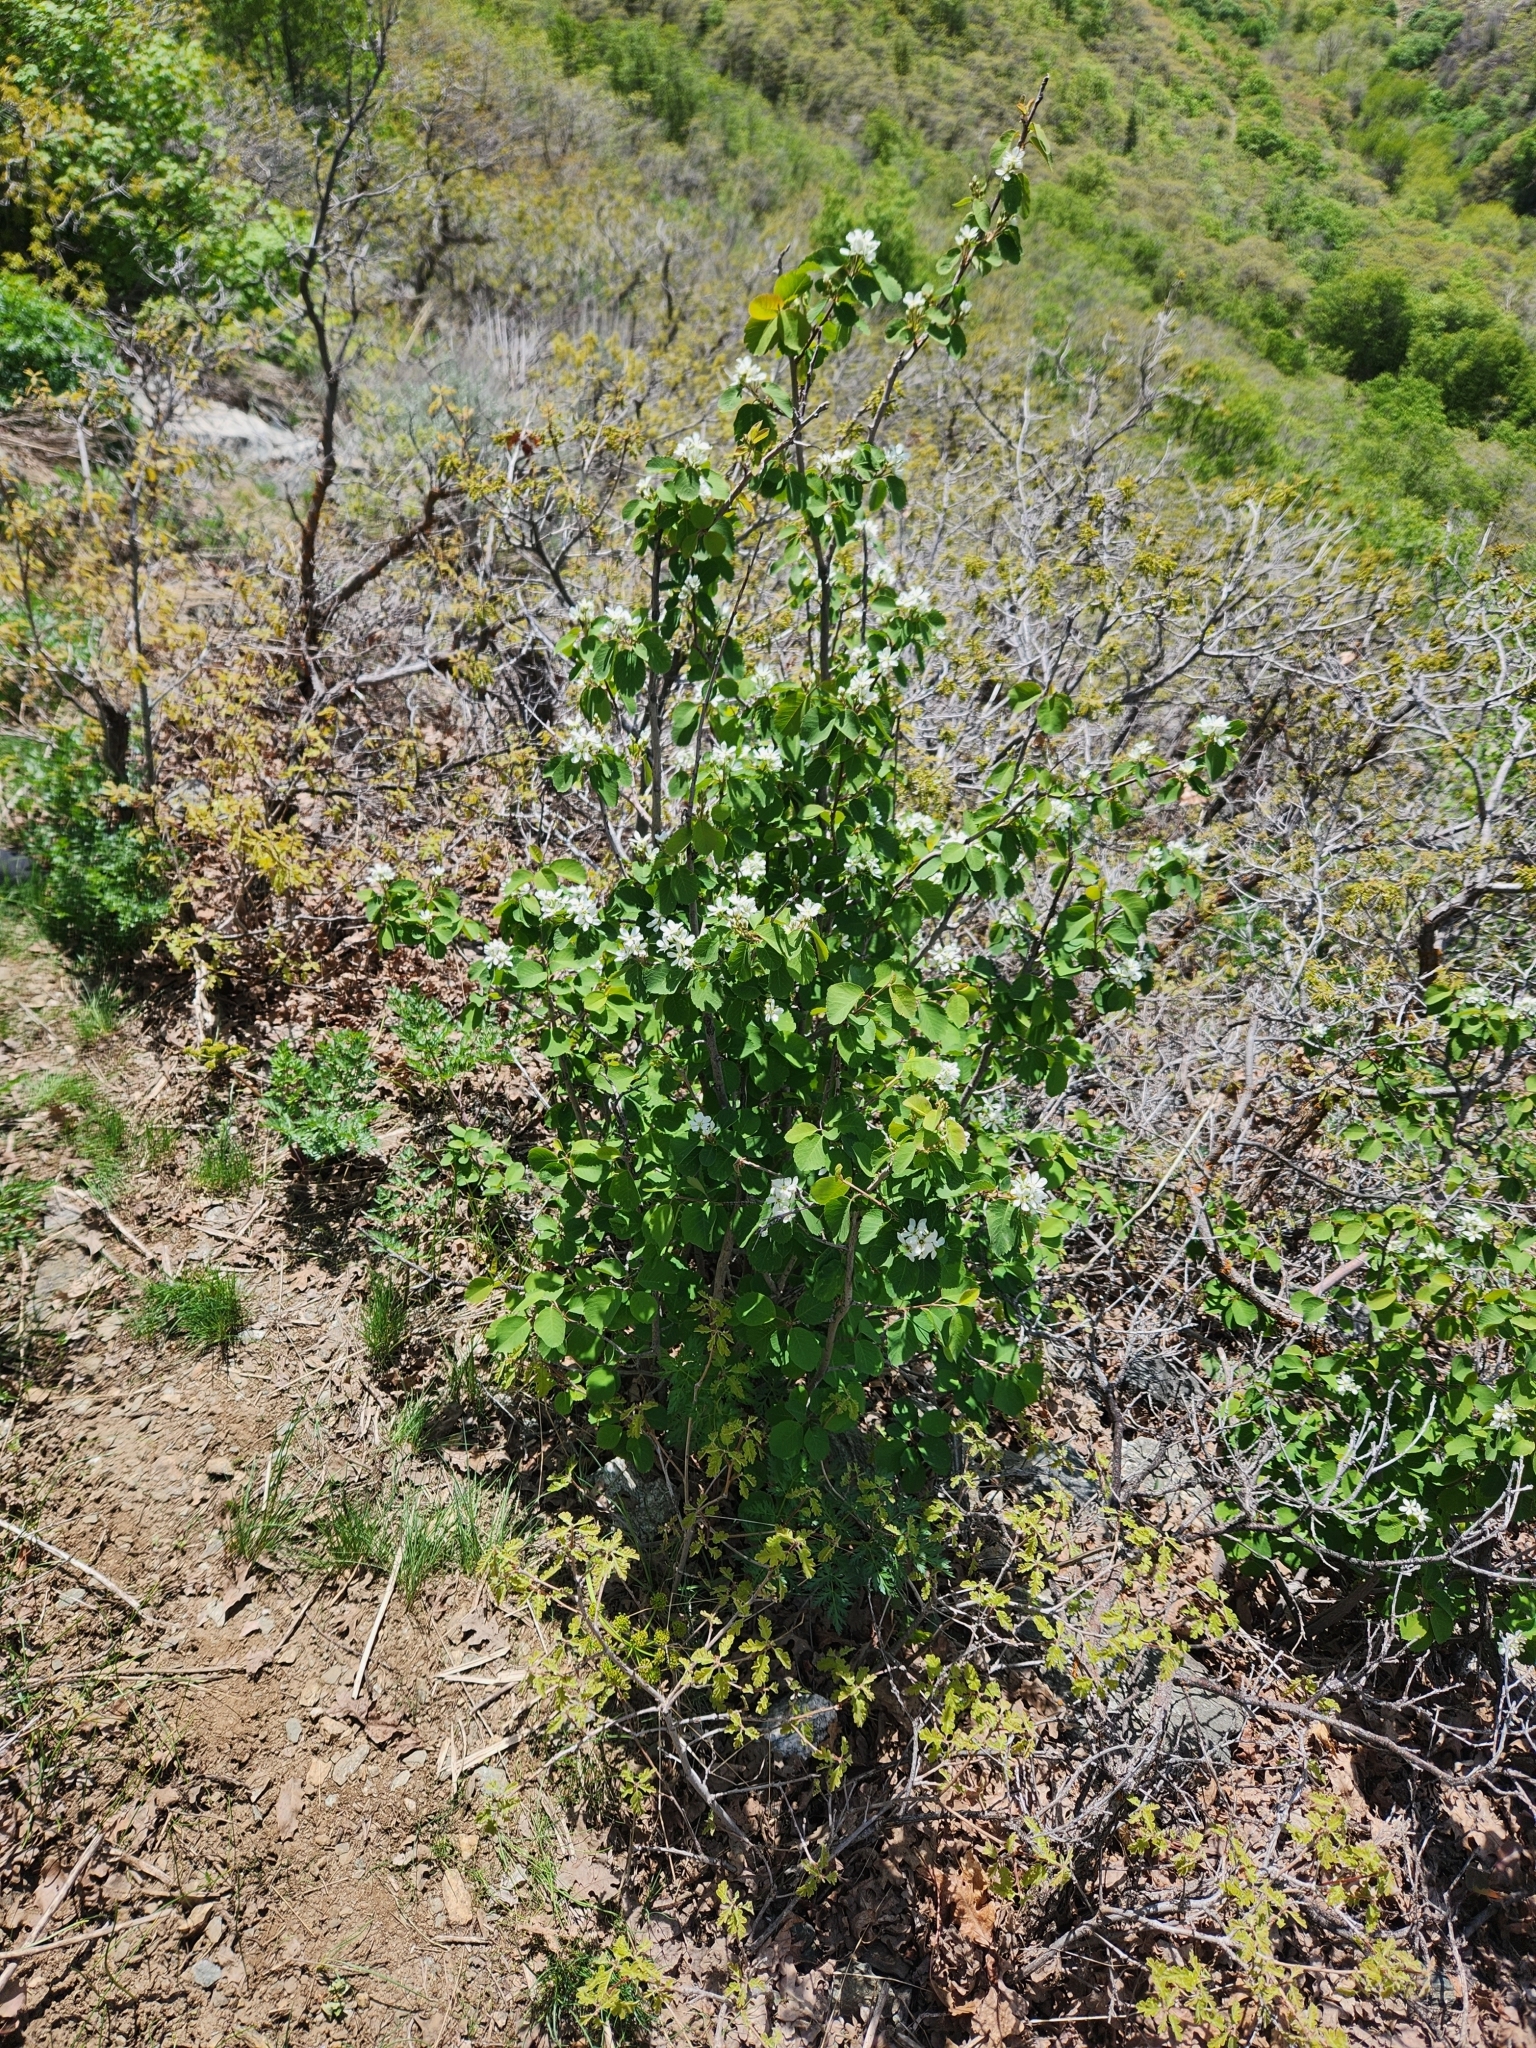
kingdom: Plantae
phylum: Tracheophyta
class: Magnoliopsida
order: Rosales
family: Rosaceae
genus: Amelanchier
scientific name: Amelanchier utahensis
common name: Utah serviceberry
